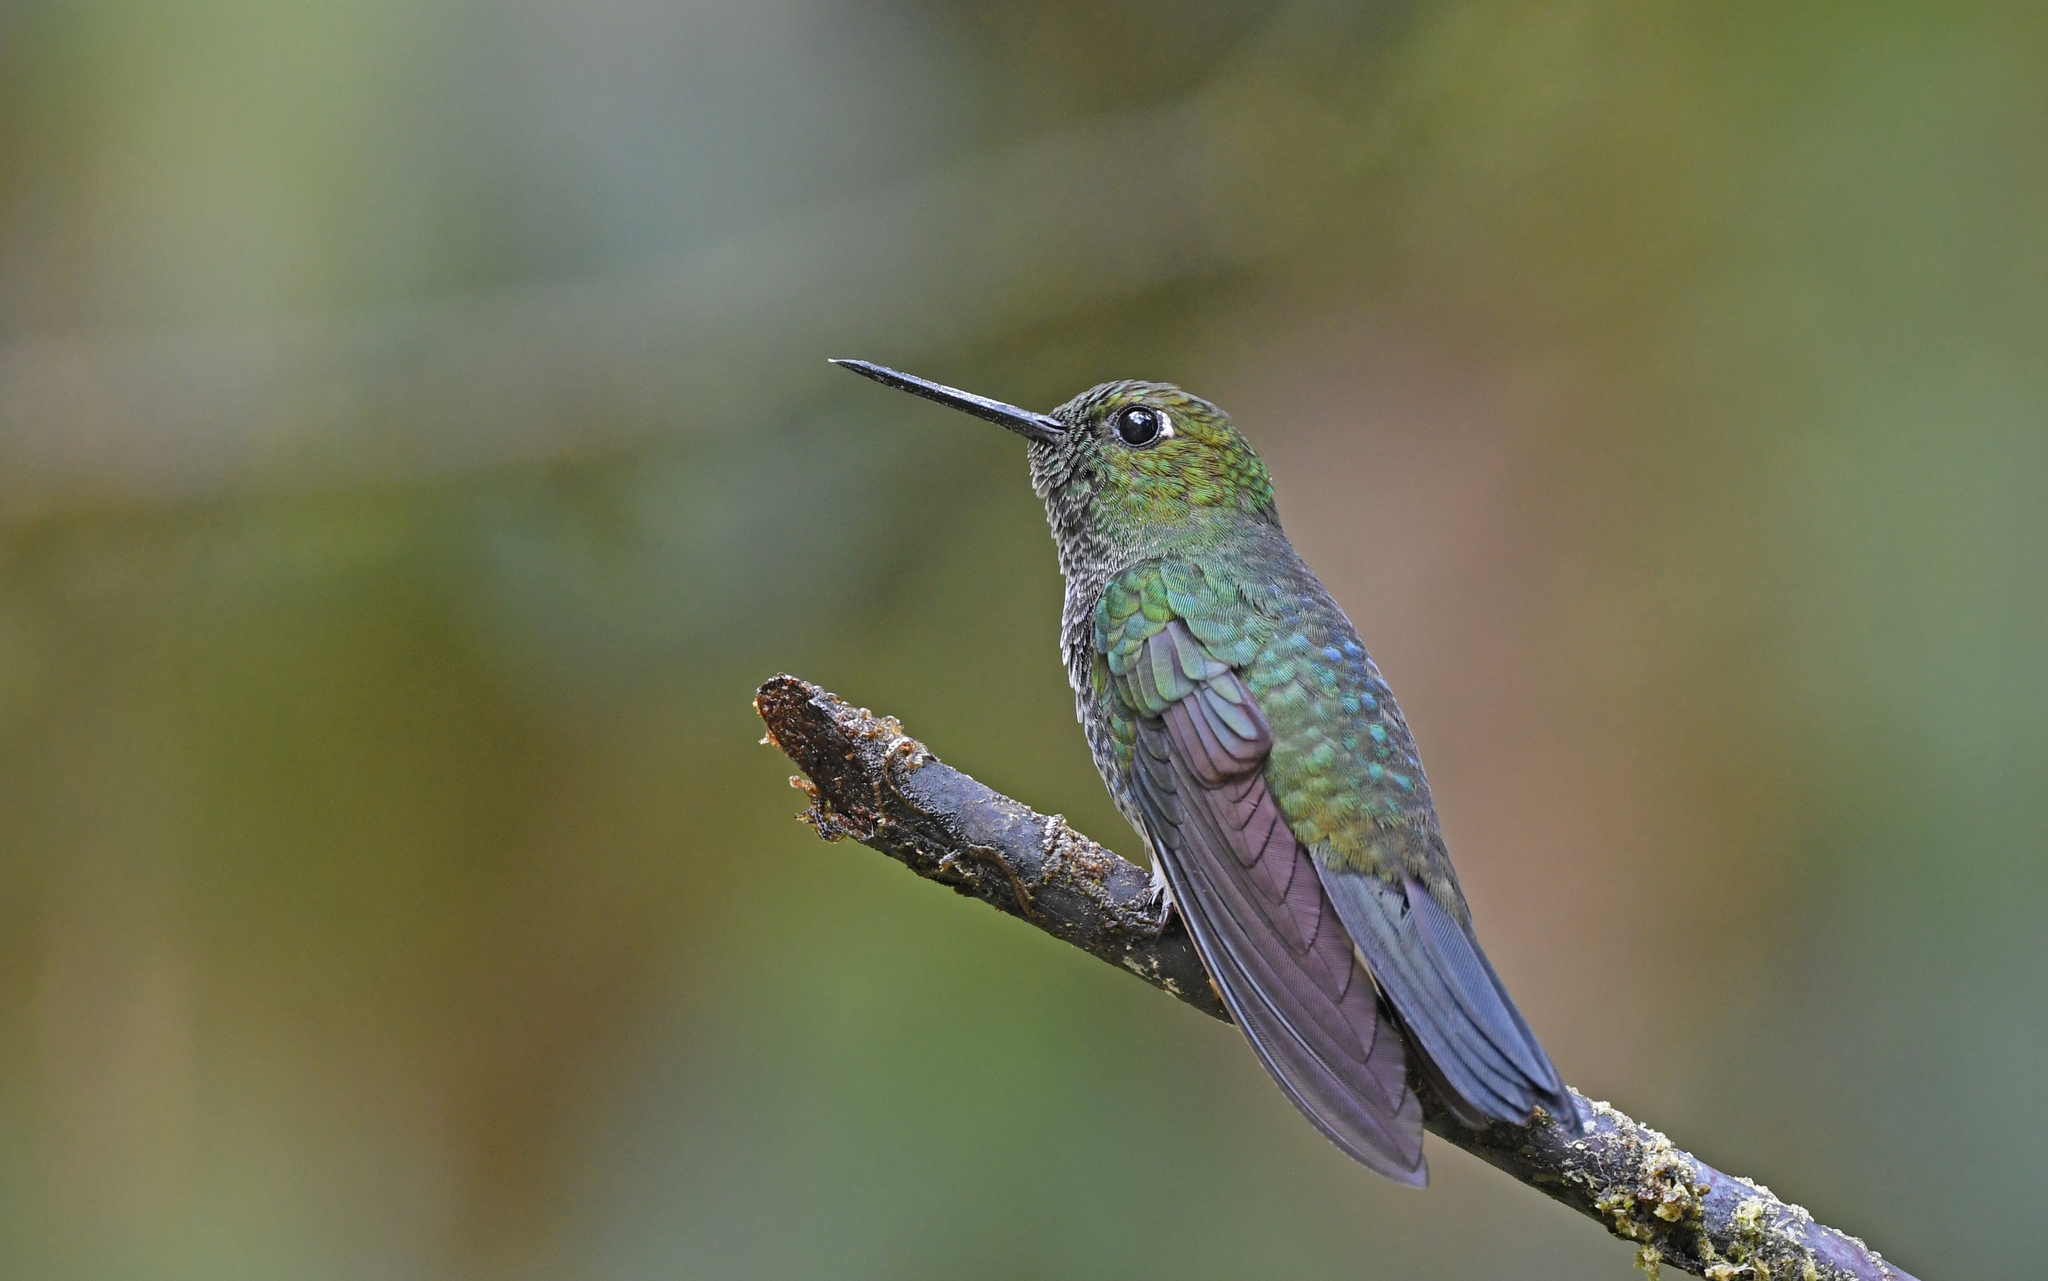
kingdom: Animalia
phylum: Chordata
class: Aves
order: Apodiformes
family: Trochilidae
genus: Haplophaedia
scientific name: Haplophaedia aureliae
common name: Greenish puffleg
